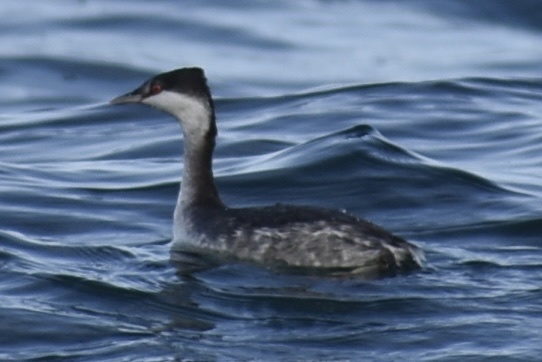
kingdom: Animalia
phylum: Chordata
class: Aves
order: Podicipediformes
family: Podicipedidae
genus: Podiceps
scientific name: Podiceps auritus
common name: Horned grebe
